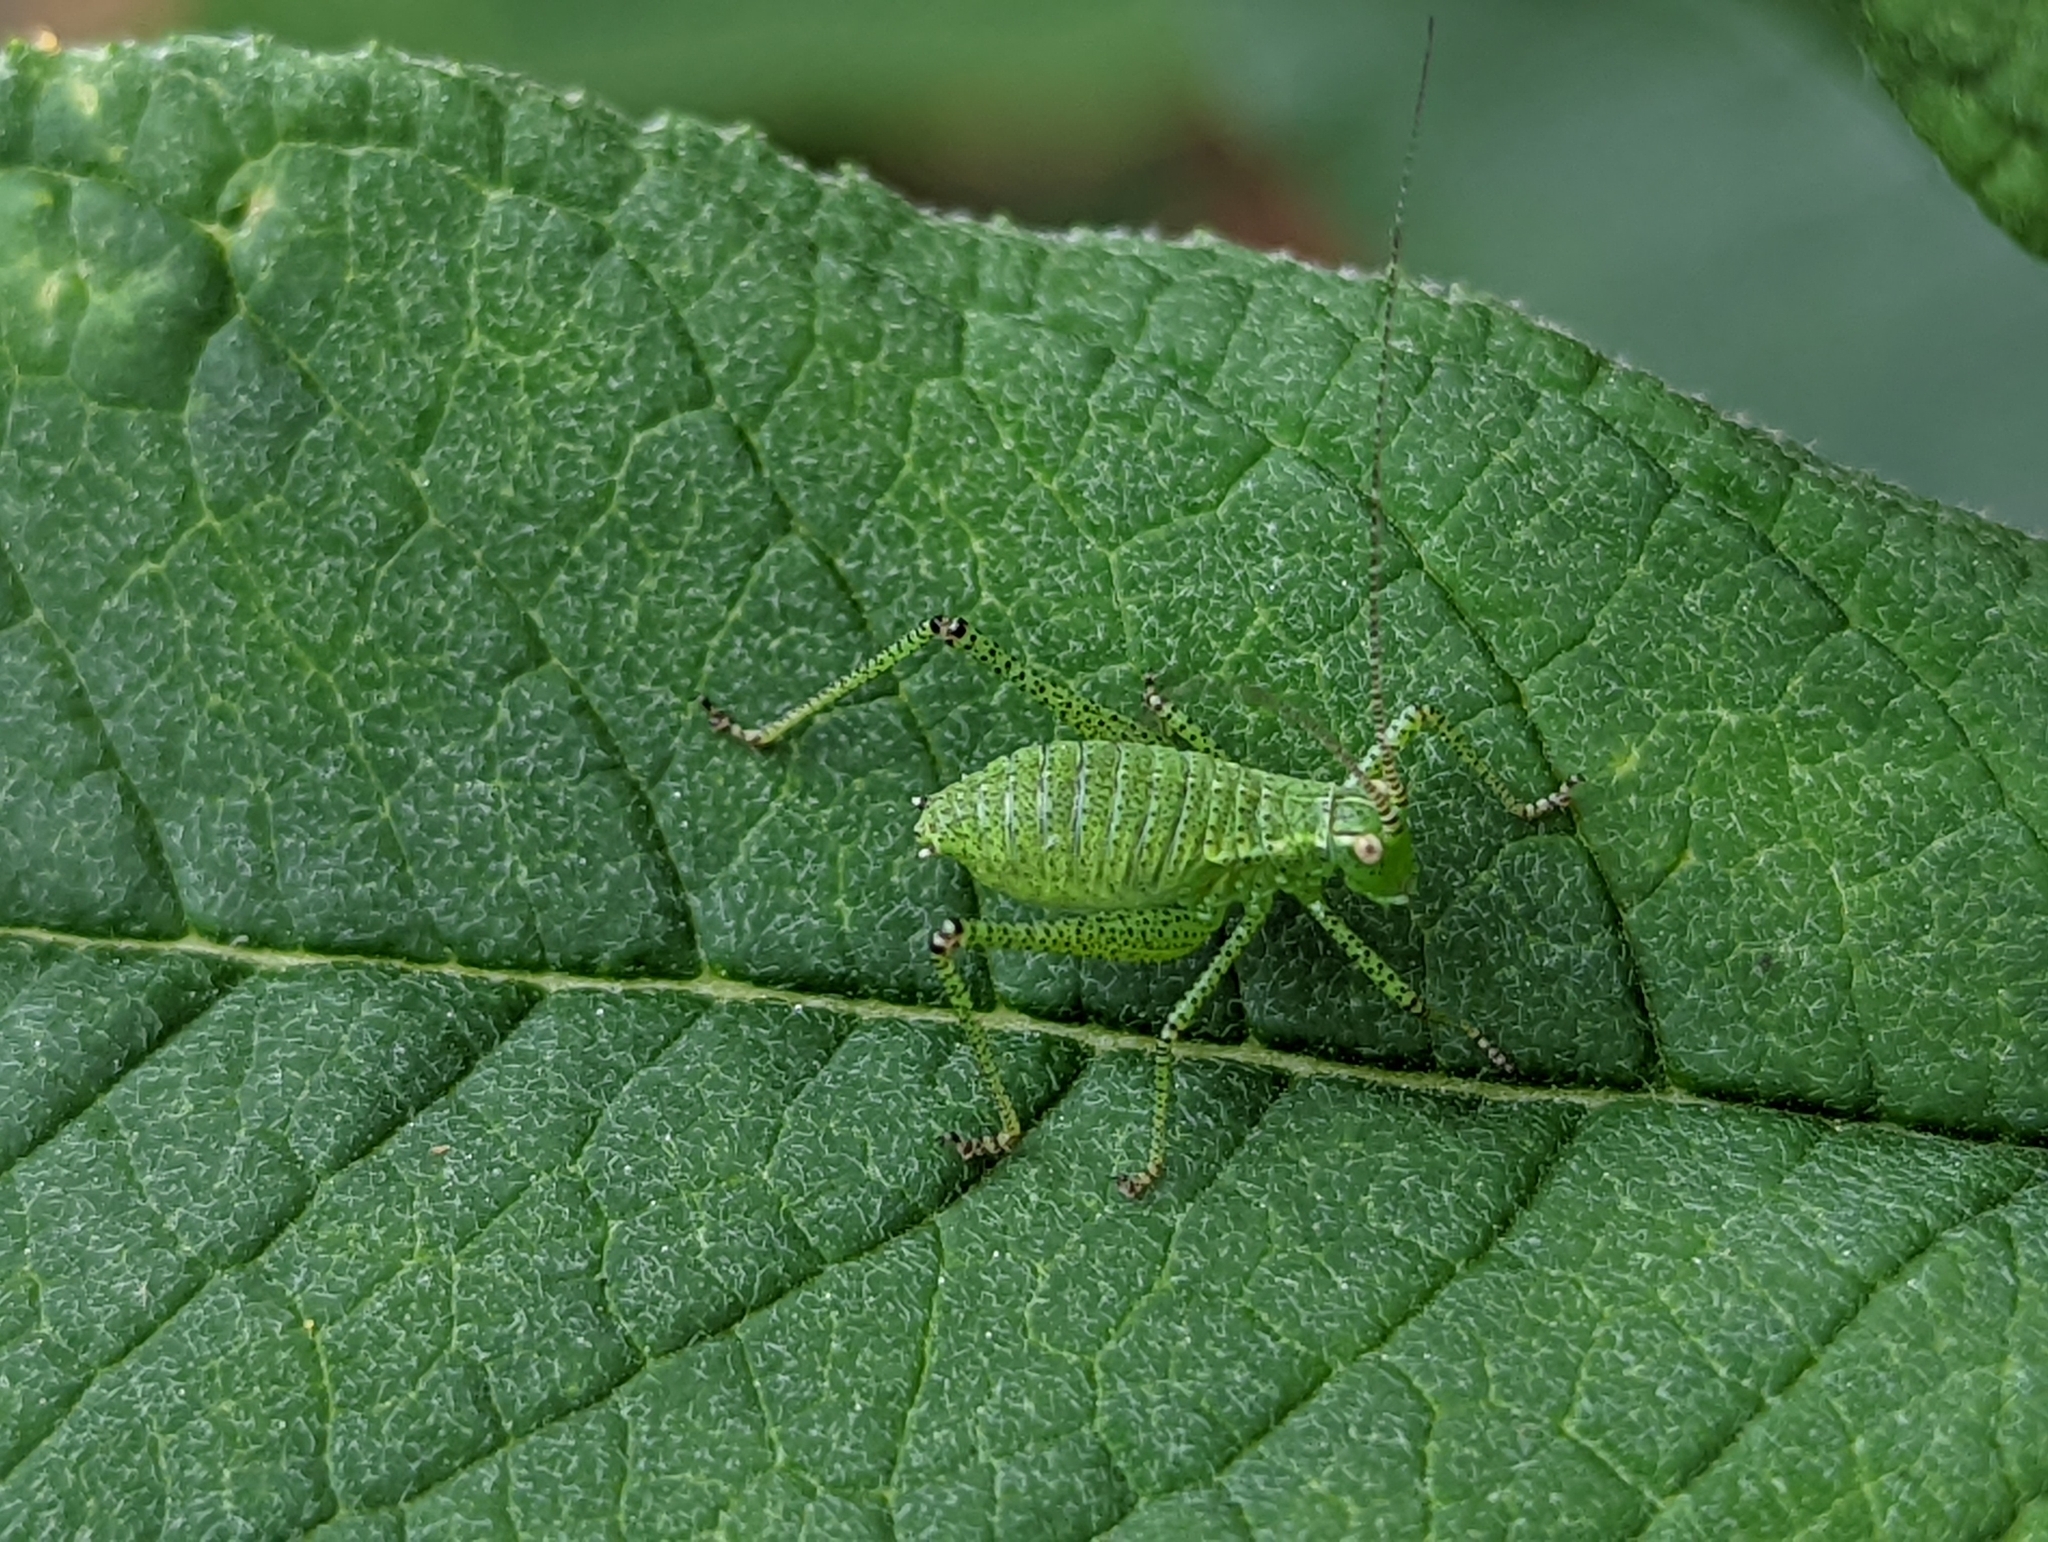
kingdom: Animalia
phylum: Arthropoda
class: Insecta
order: Orthoptera
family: Tettigoniidae
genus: Leptophyes
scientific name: Leptophyes punctatissima
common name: Speckled bush-cricket
